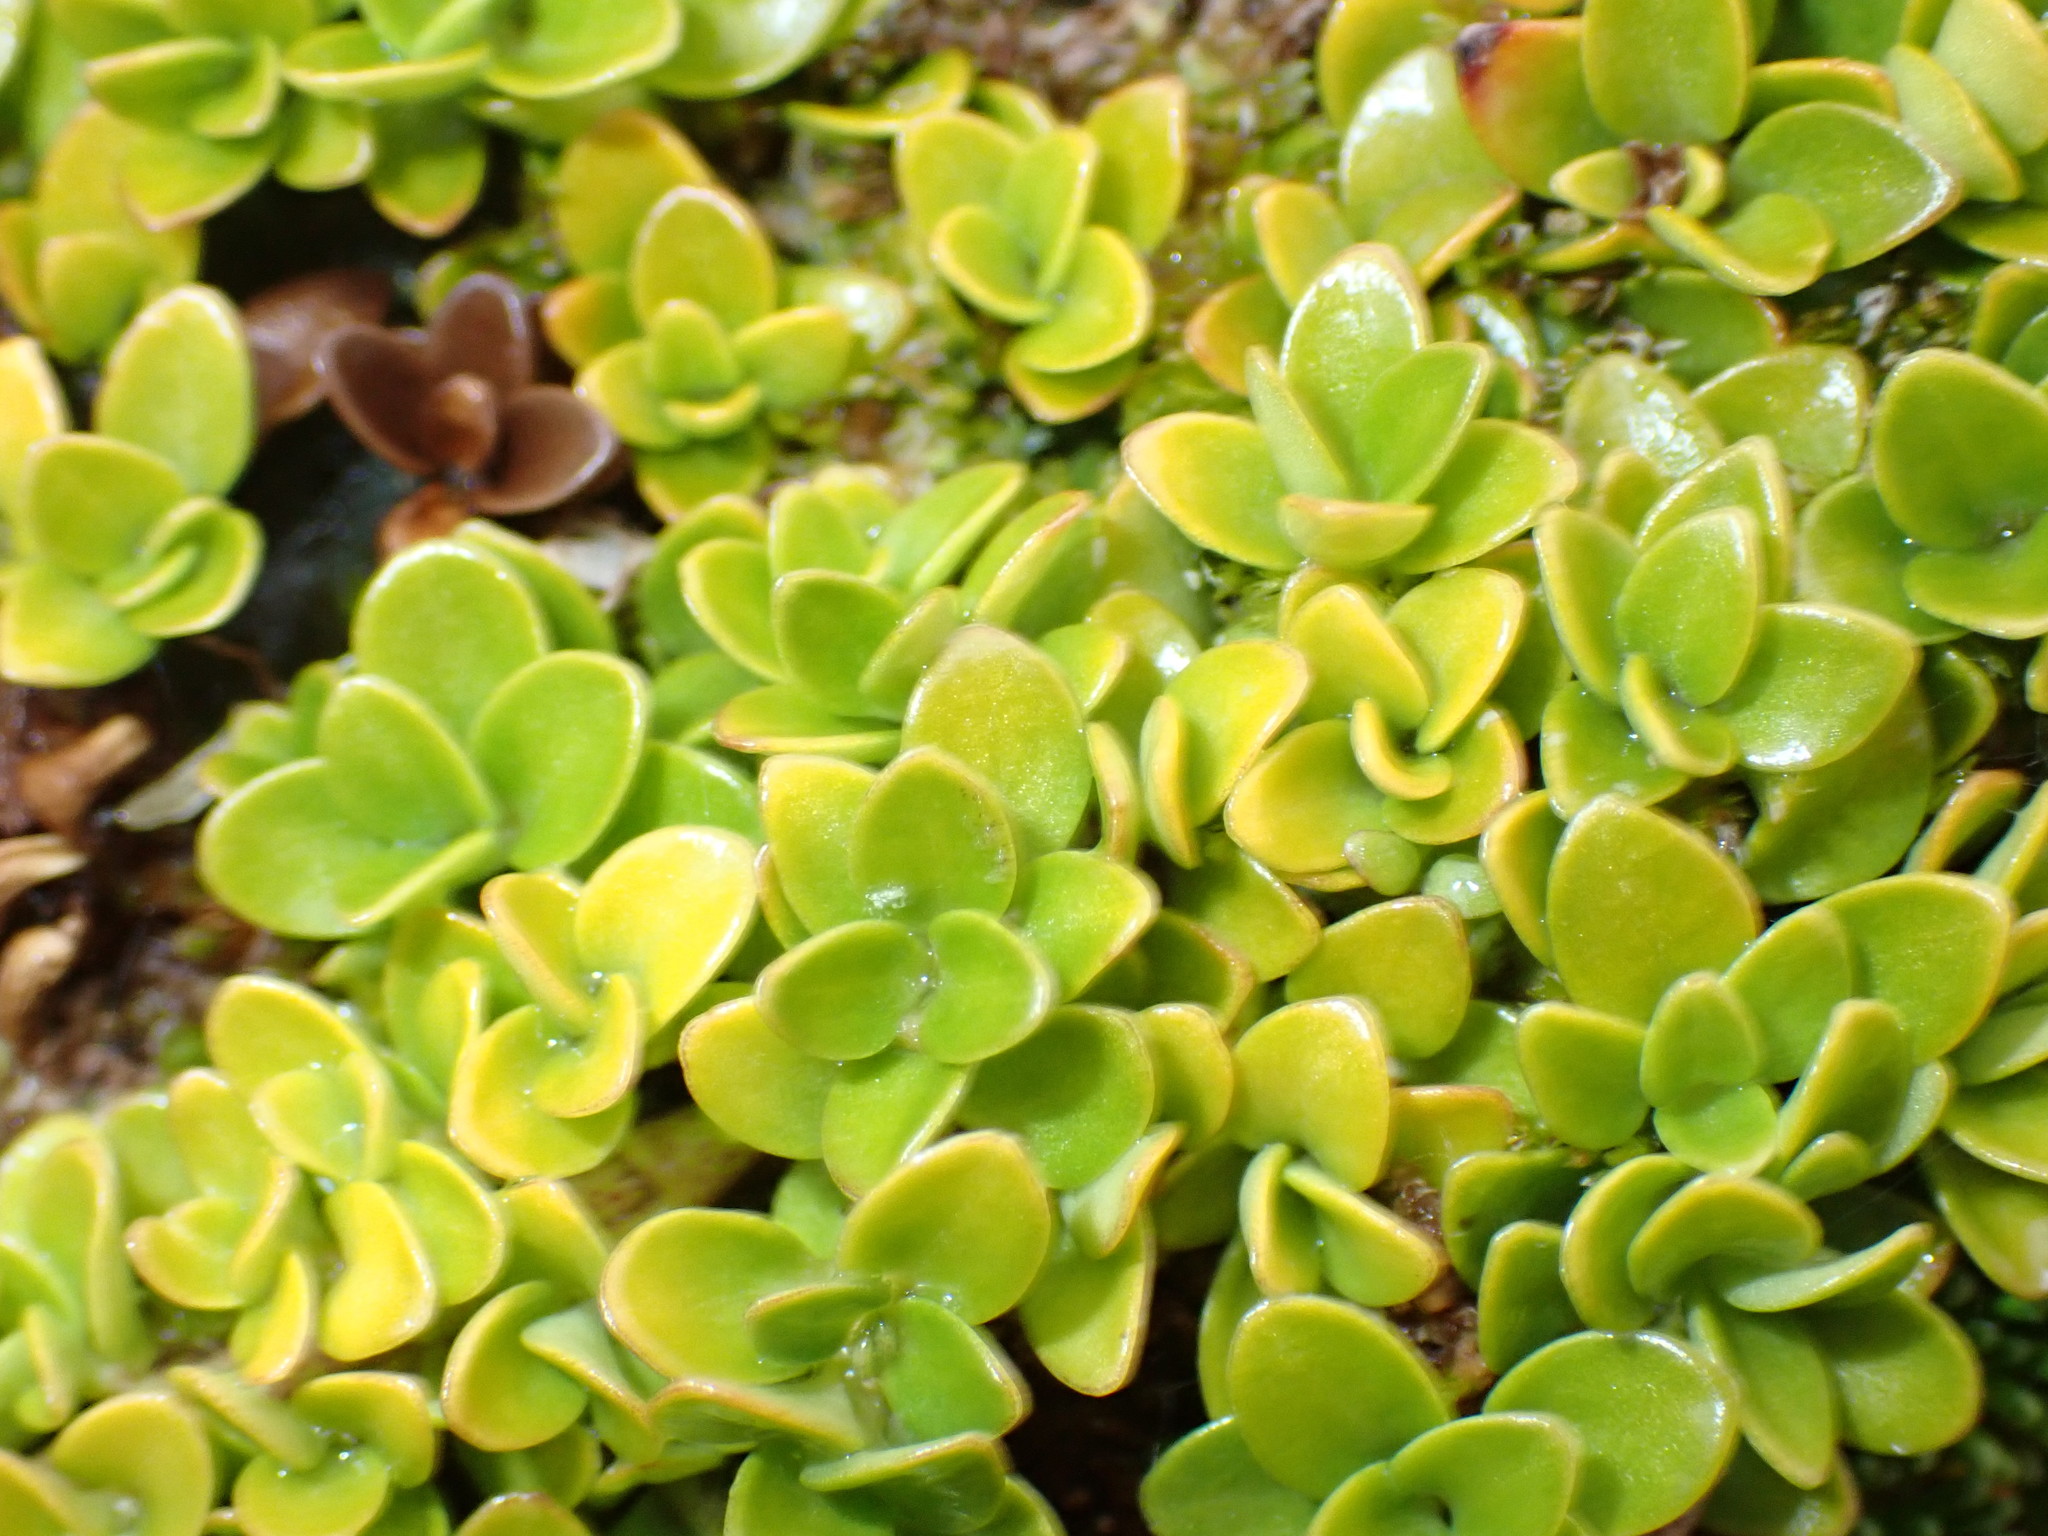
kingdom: Plantae
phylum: Tracheophyta
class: Magnoliopsida
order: Gentianales
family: Rubiaceae
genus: Coprosma
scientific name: Coprosma perpusilla
